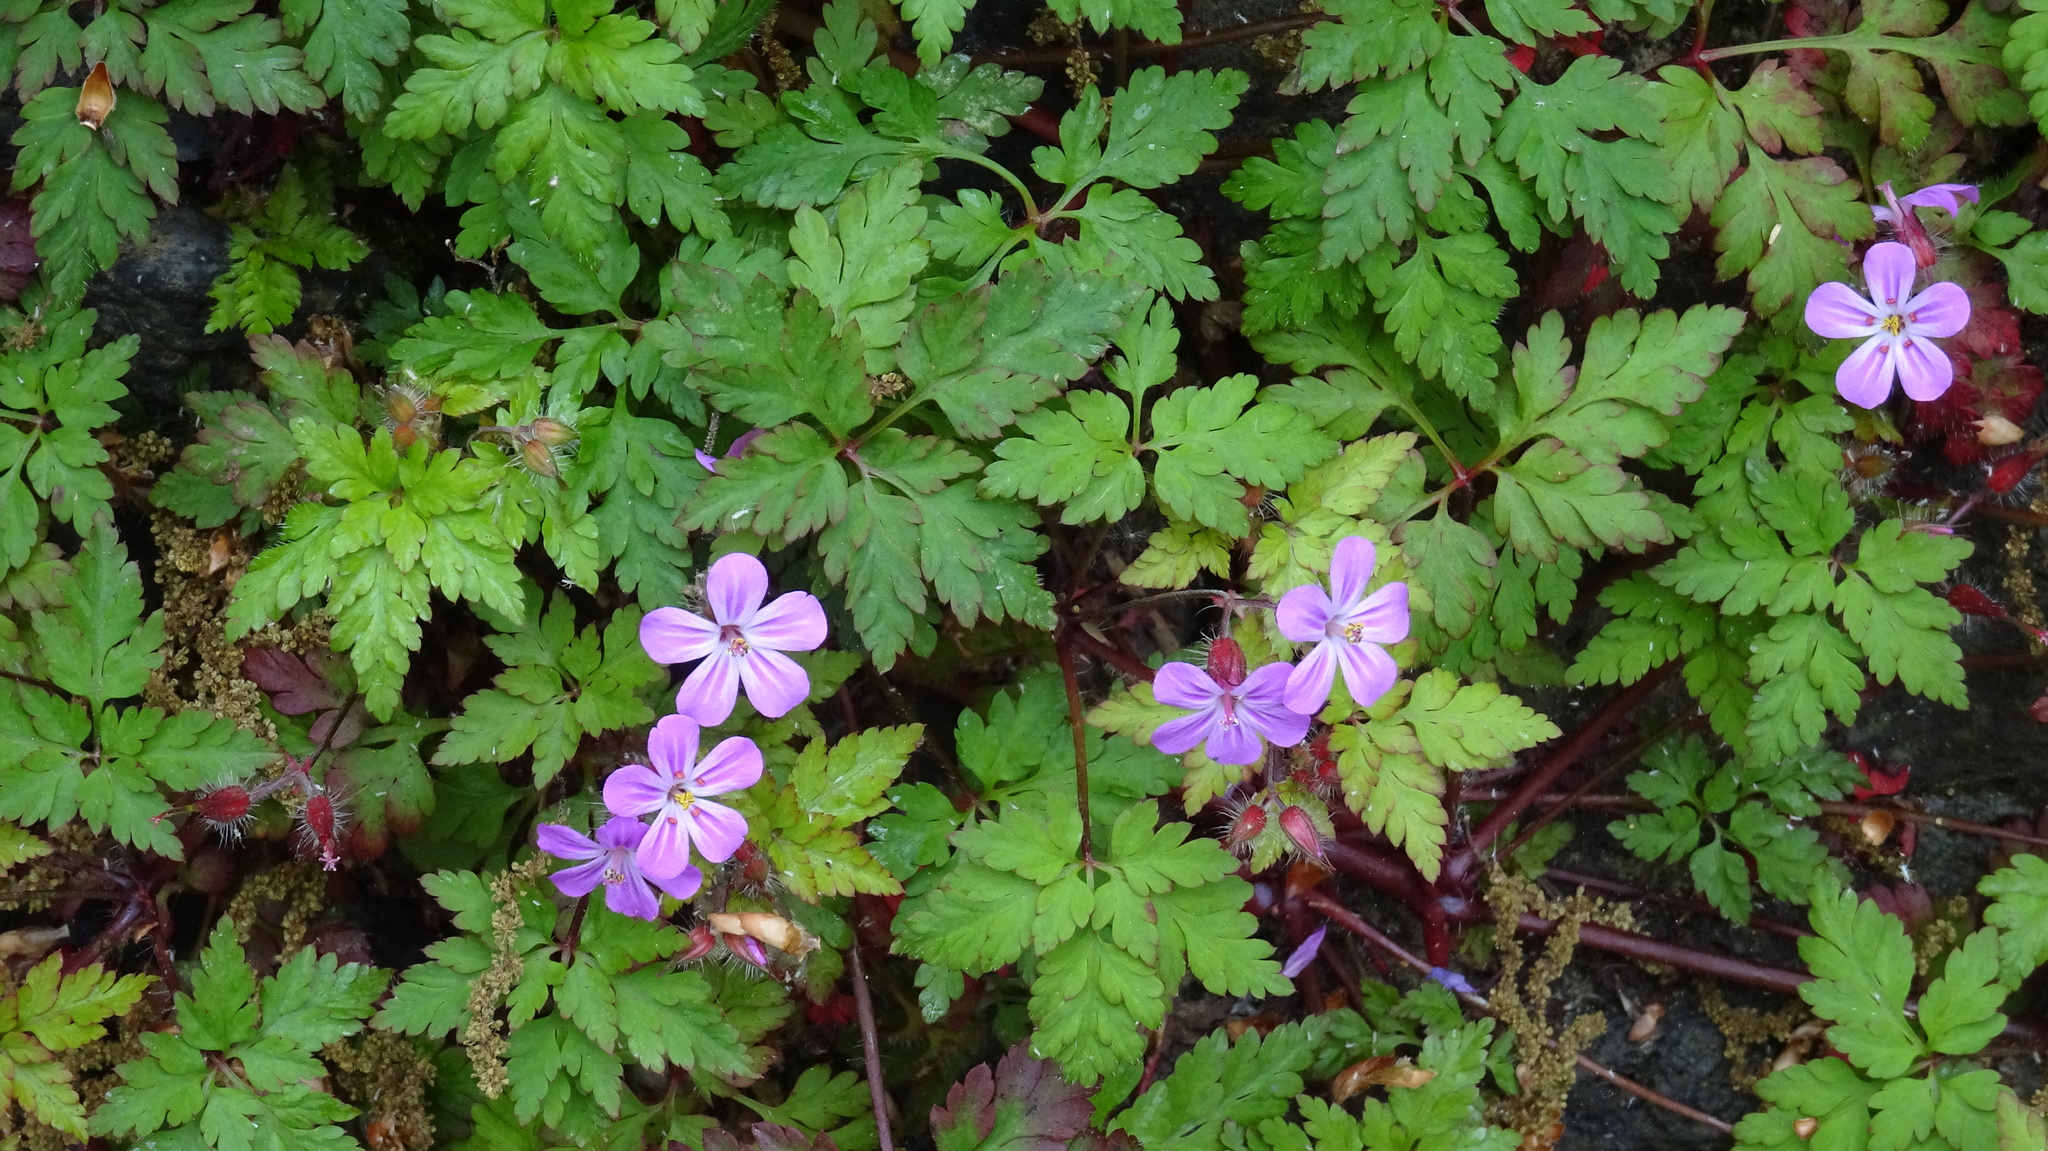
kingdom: Plantae
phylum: Tracheophyta
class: Magnoliopsida
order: Geraniales
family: Geraniaceae
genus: Geranium
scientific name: Geranium robertianum
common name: Herb-robert
